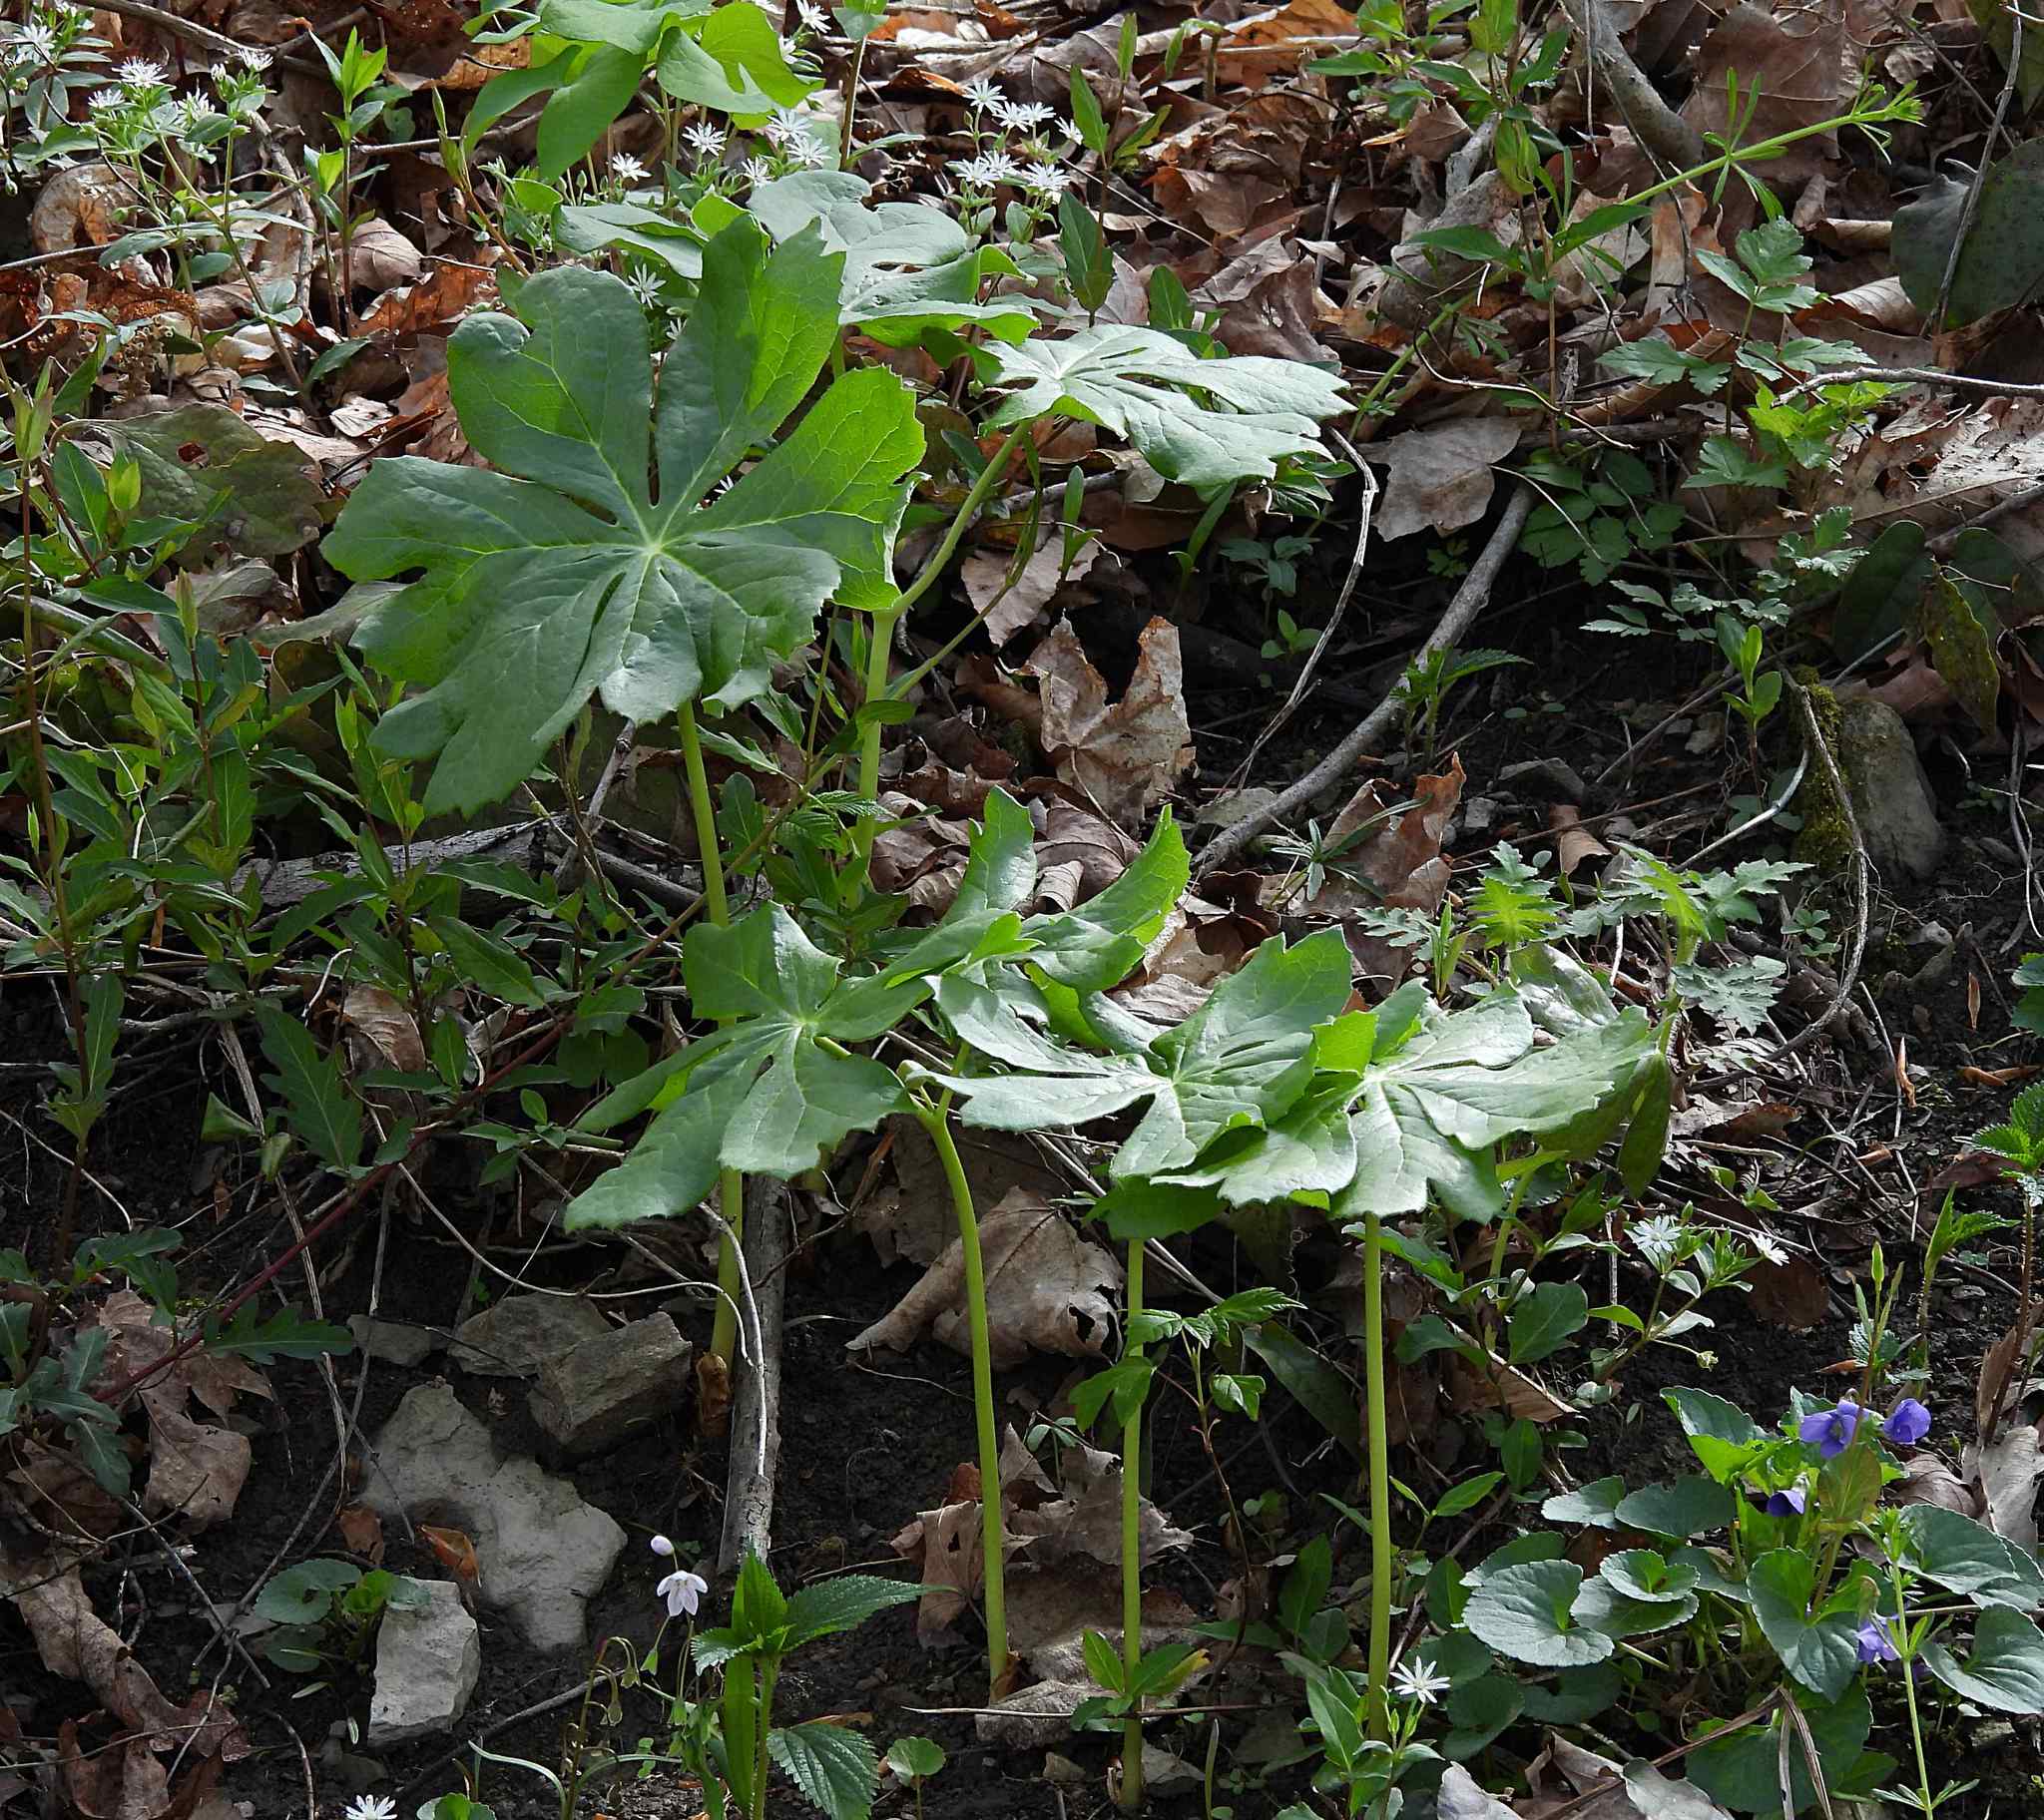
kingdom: Plantae
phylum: Tracheophyta
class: Magnoliopsida
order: Ranunculales
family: Berberidaceae
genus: Podophyllum
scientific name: Podophyllum peltatum
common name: Wild mandrake
